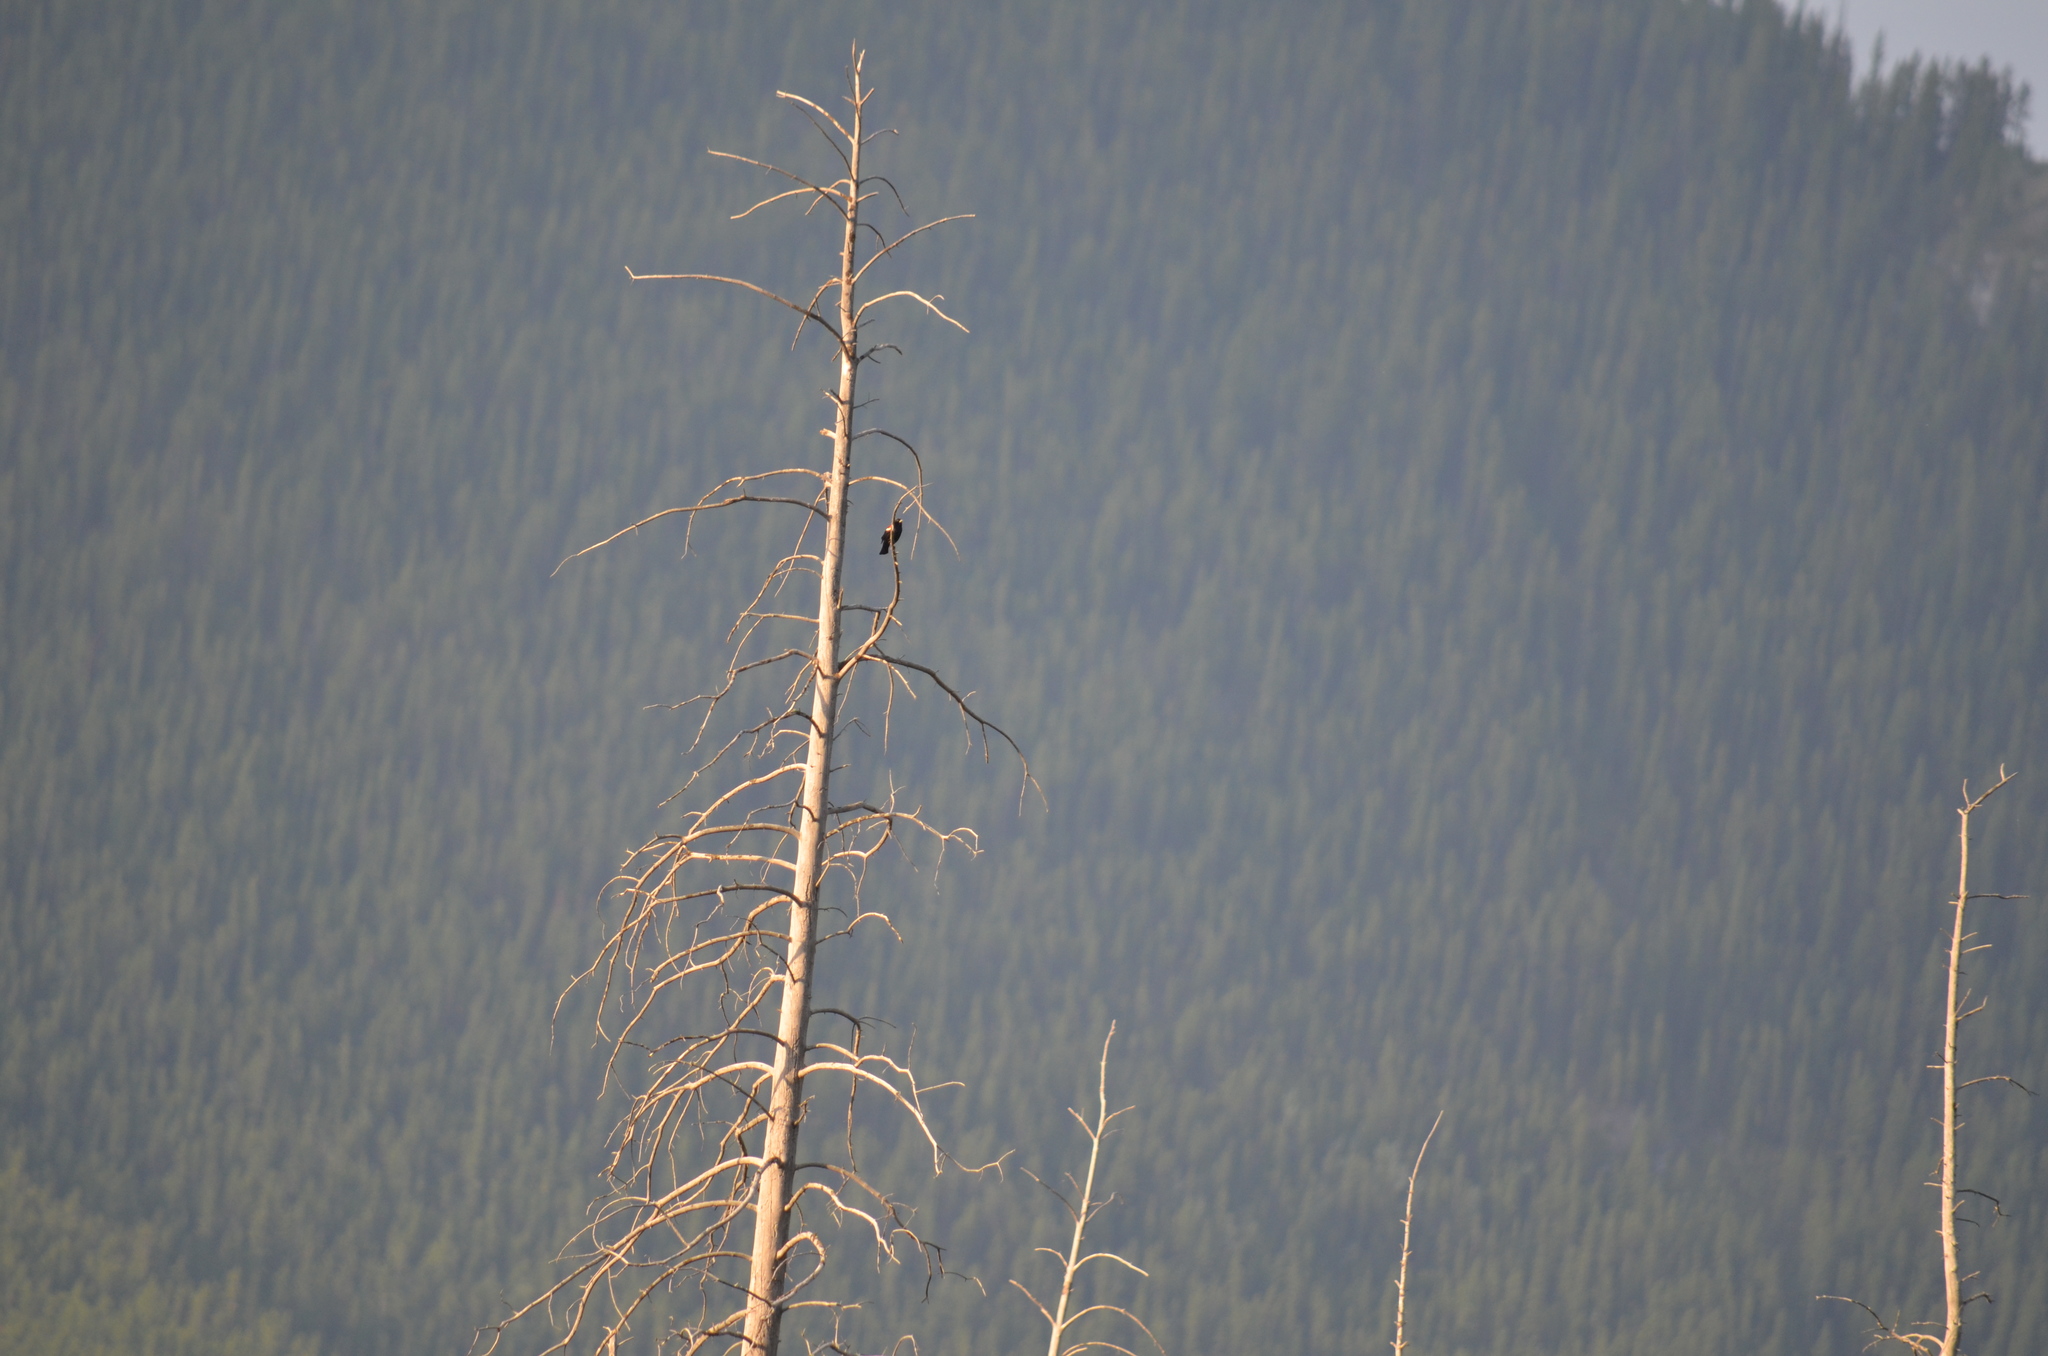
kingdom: Animalia
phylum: Chordata
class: Aves
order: Passeriformes
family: Icteridae
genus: Agelaius
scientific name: Agelaius phoeniceus
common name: Red-winged blackbird
